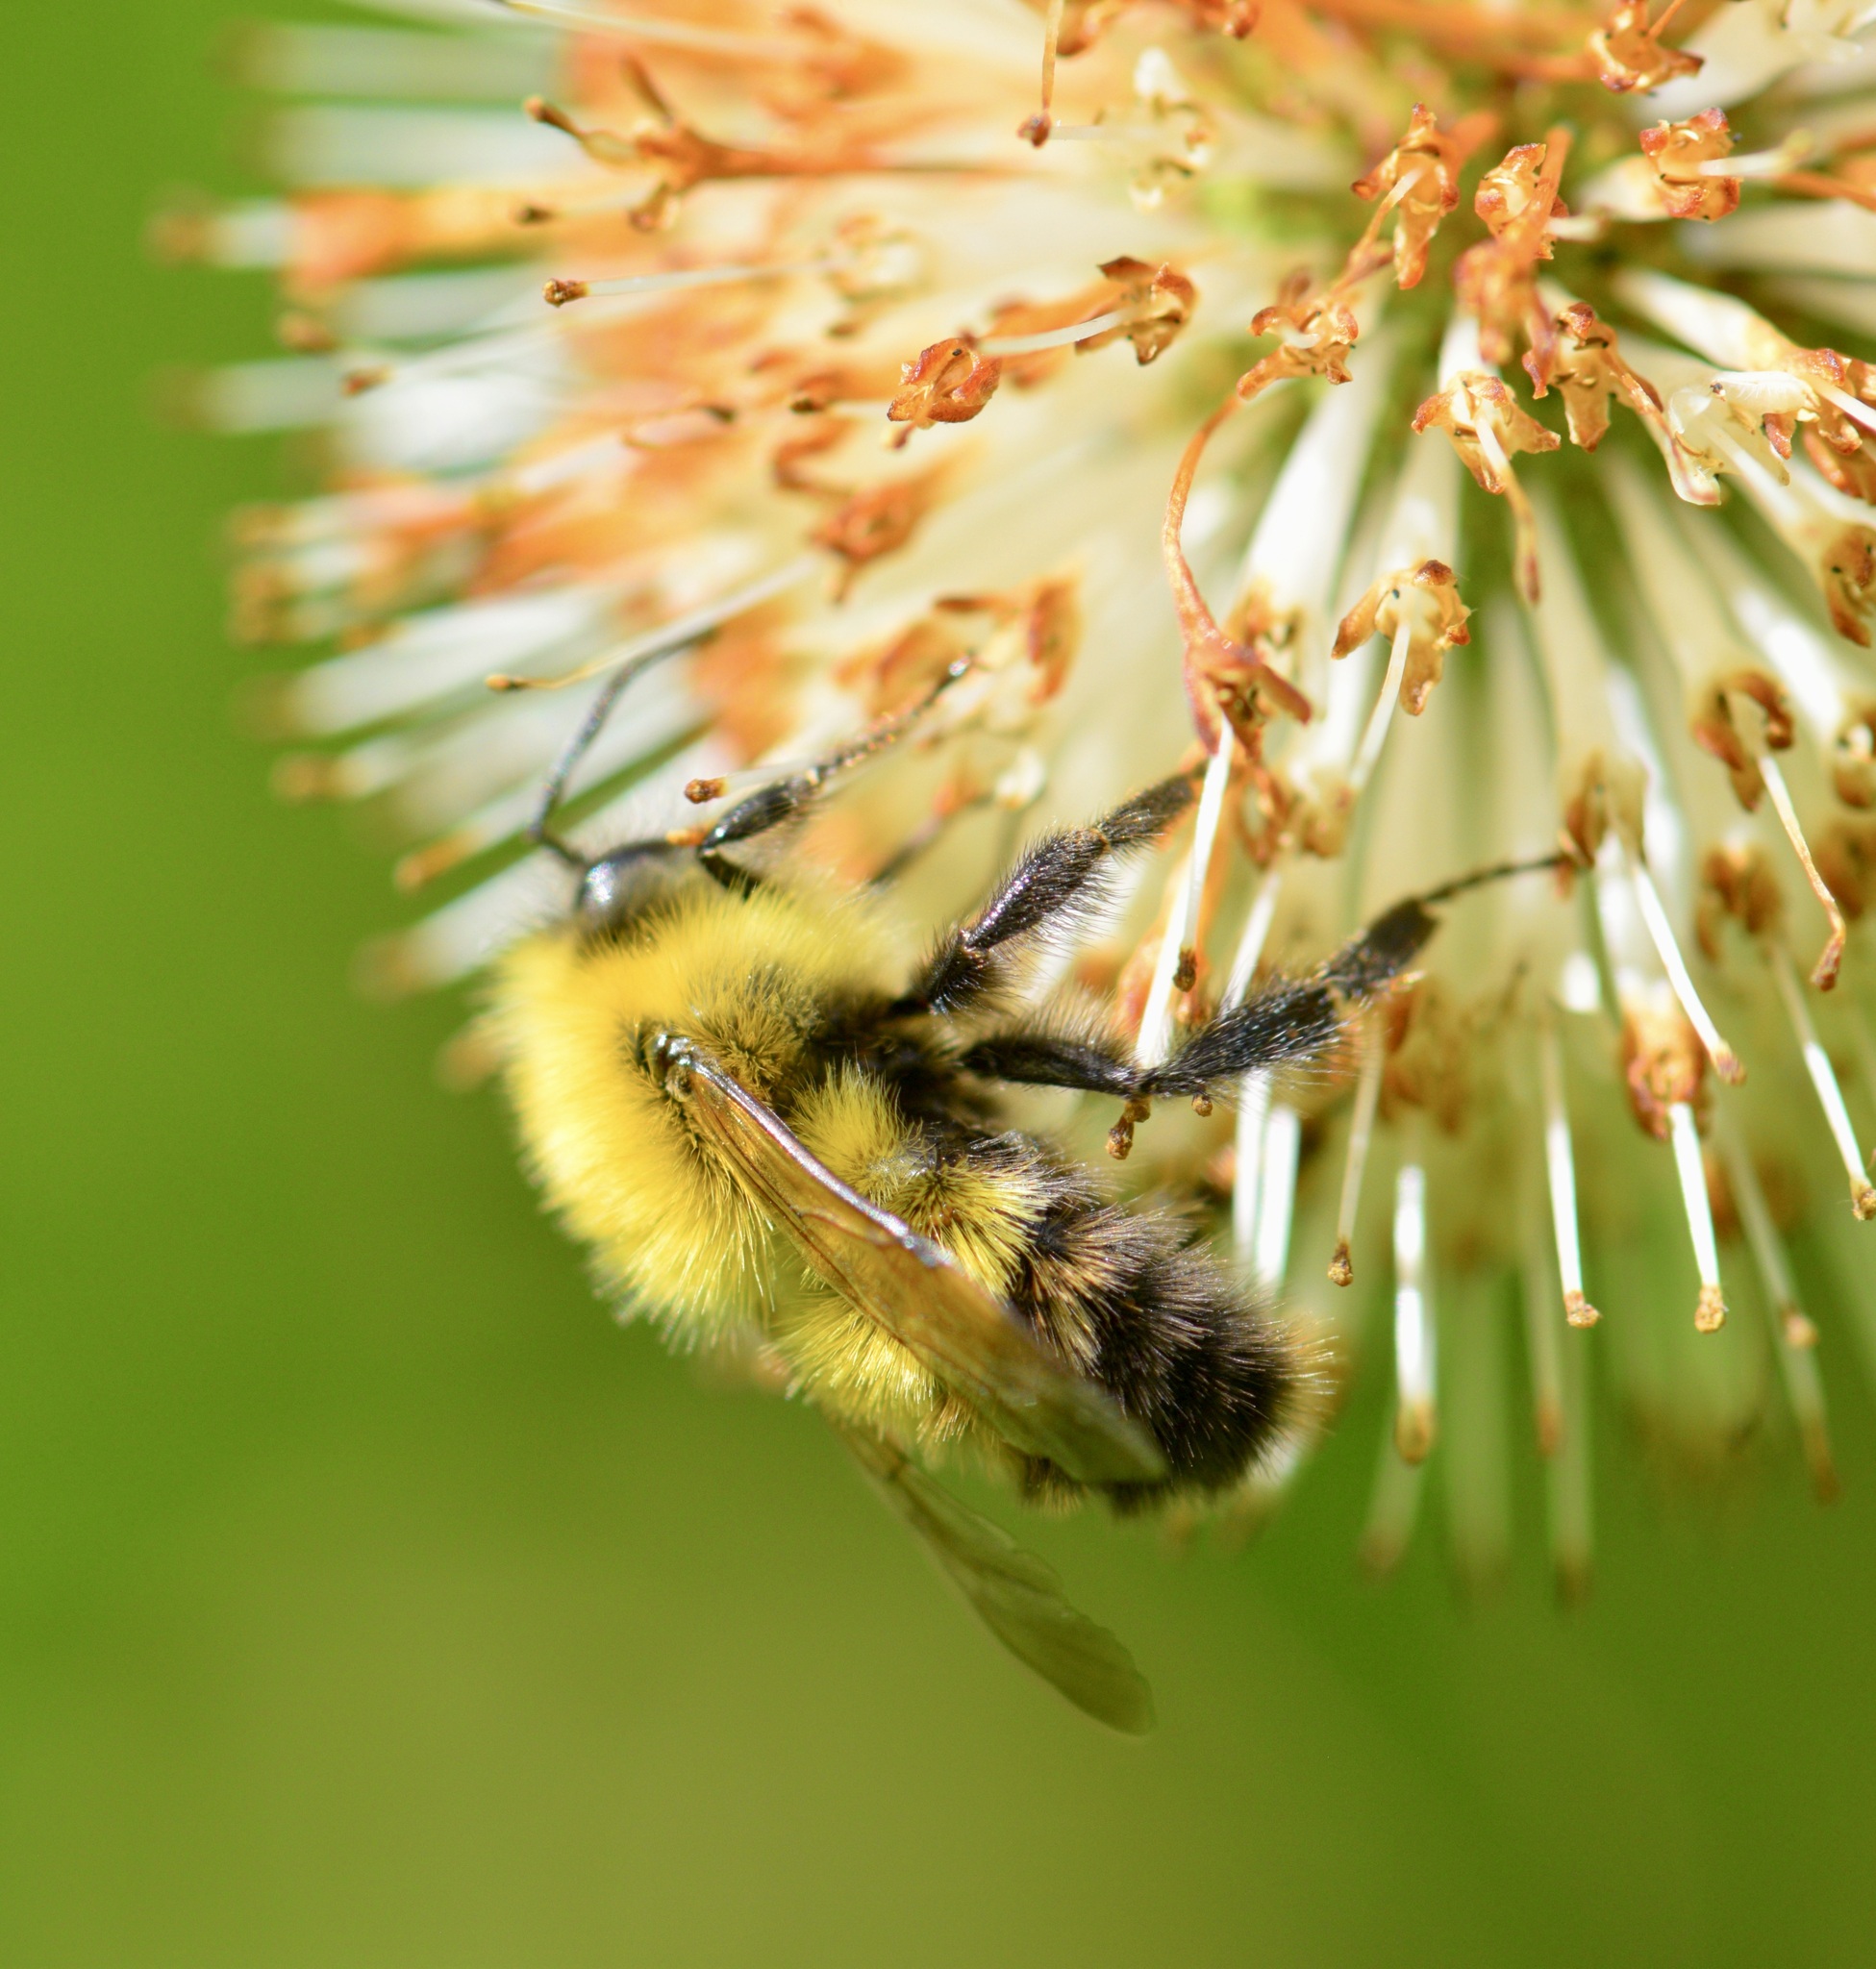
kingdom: Animalia
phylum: Arthropoda
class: Insecta
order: Hymenoptera
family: Apidae
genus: Bombus
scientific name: Bombus perplexus
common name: Confusing bumble bee
